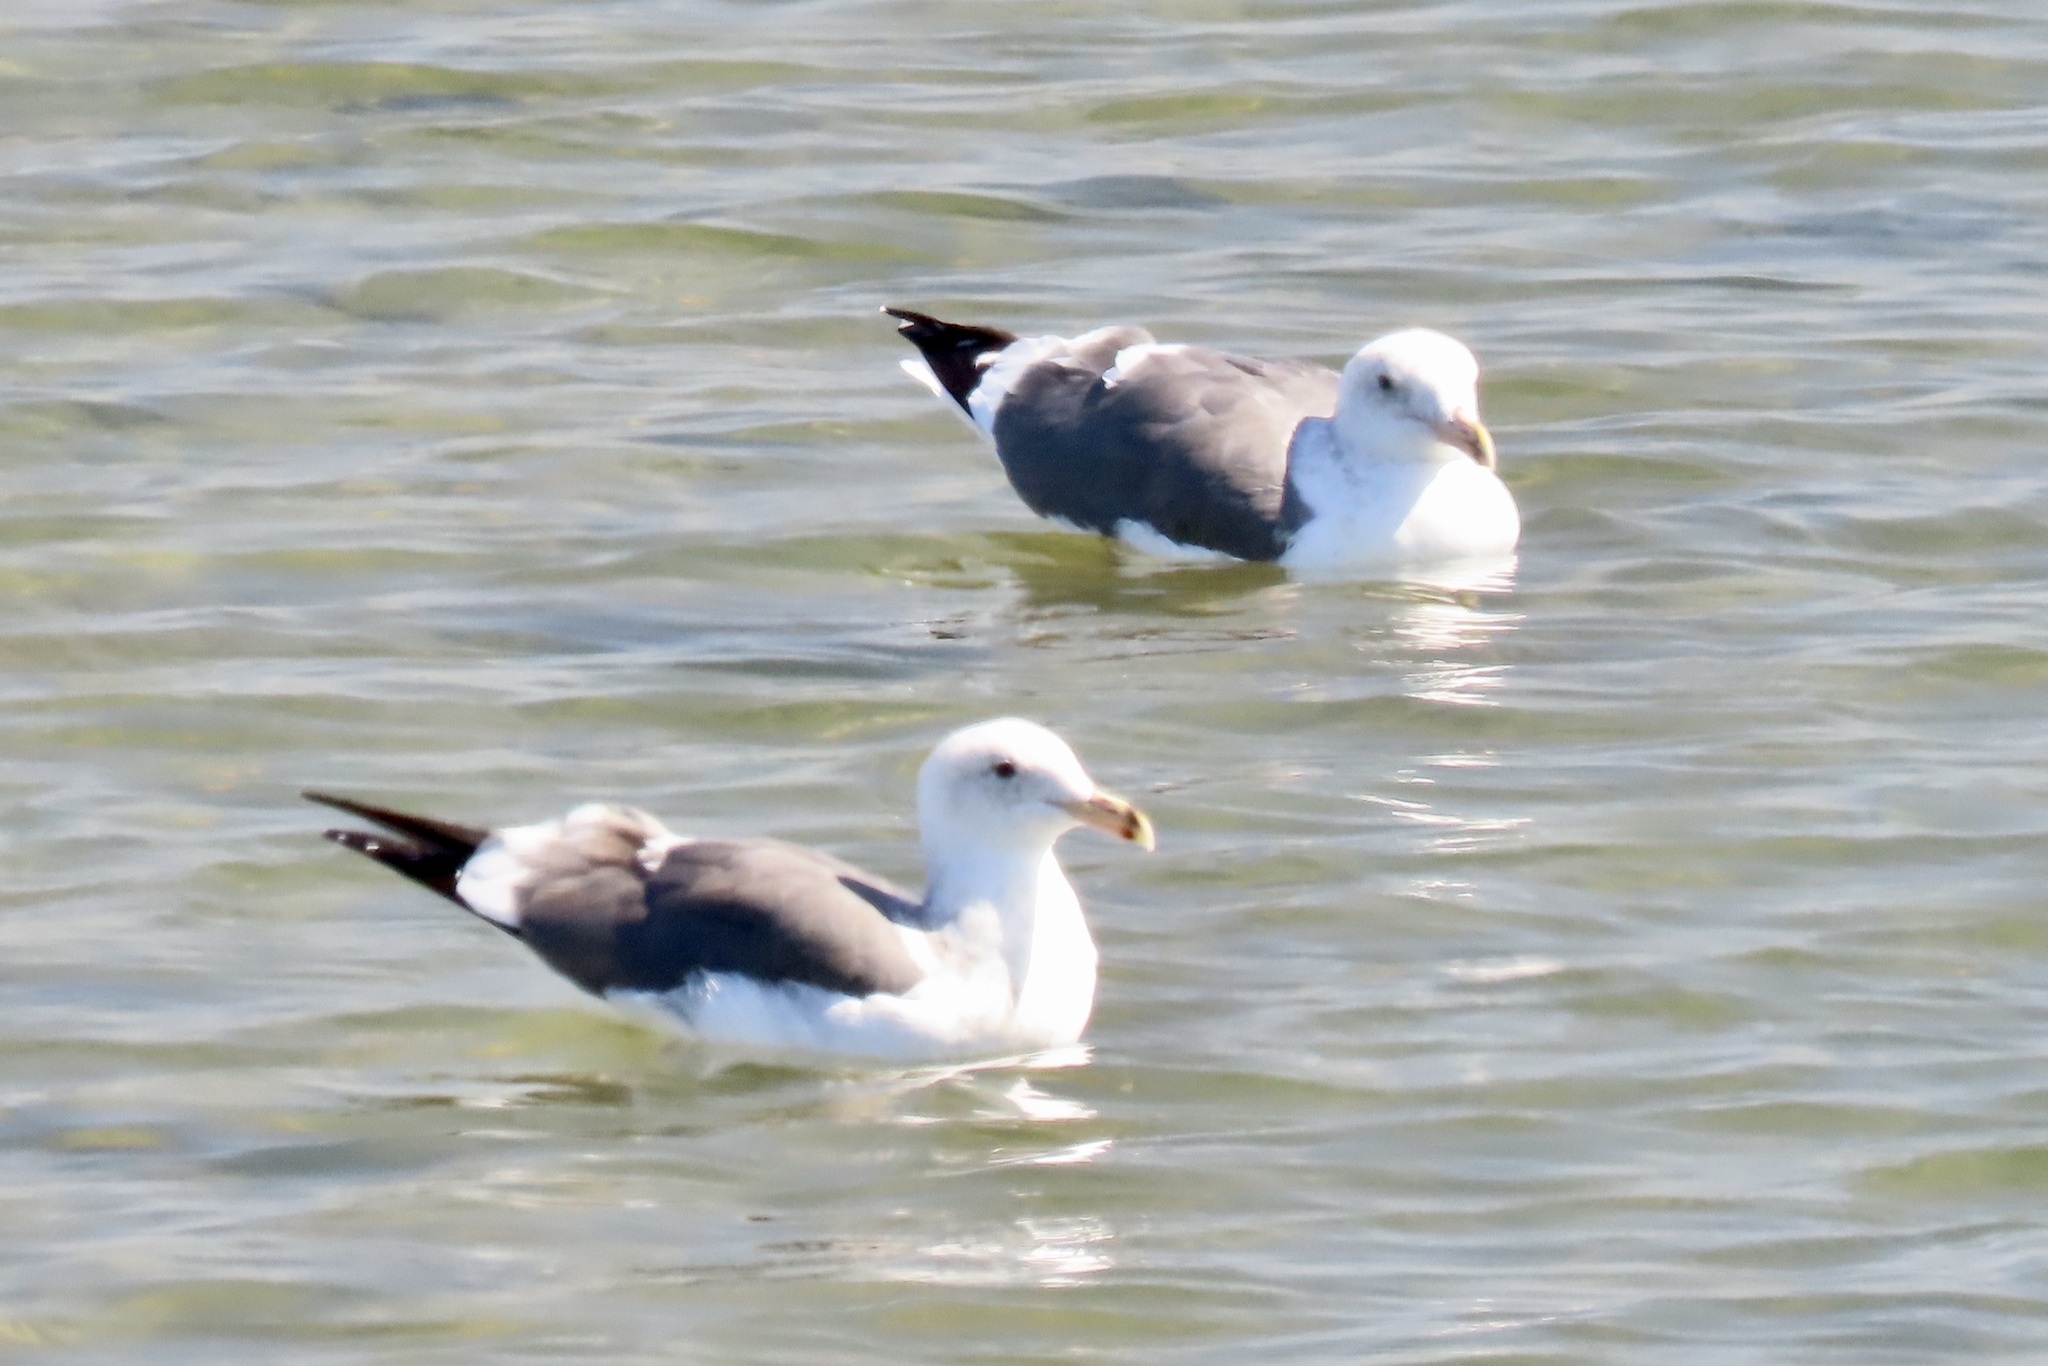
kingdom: Animalia
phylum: Chordata
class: Aves
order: Charadriiformes
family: Laridae
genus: Larus
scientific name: Larus occidentalis
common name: Western gull
